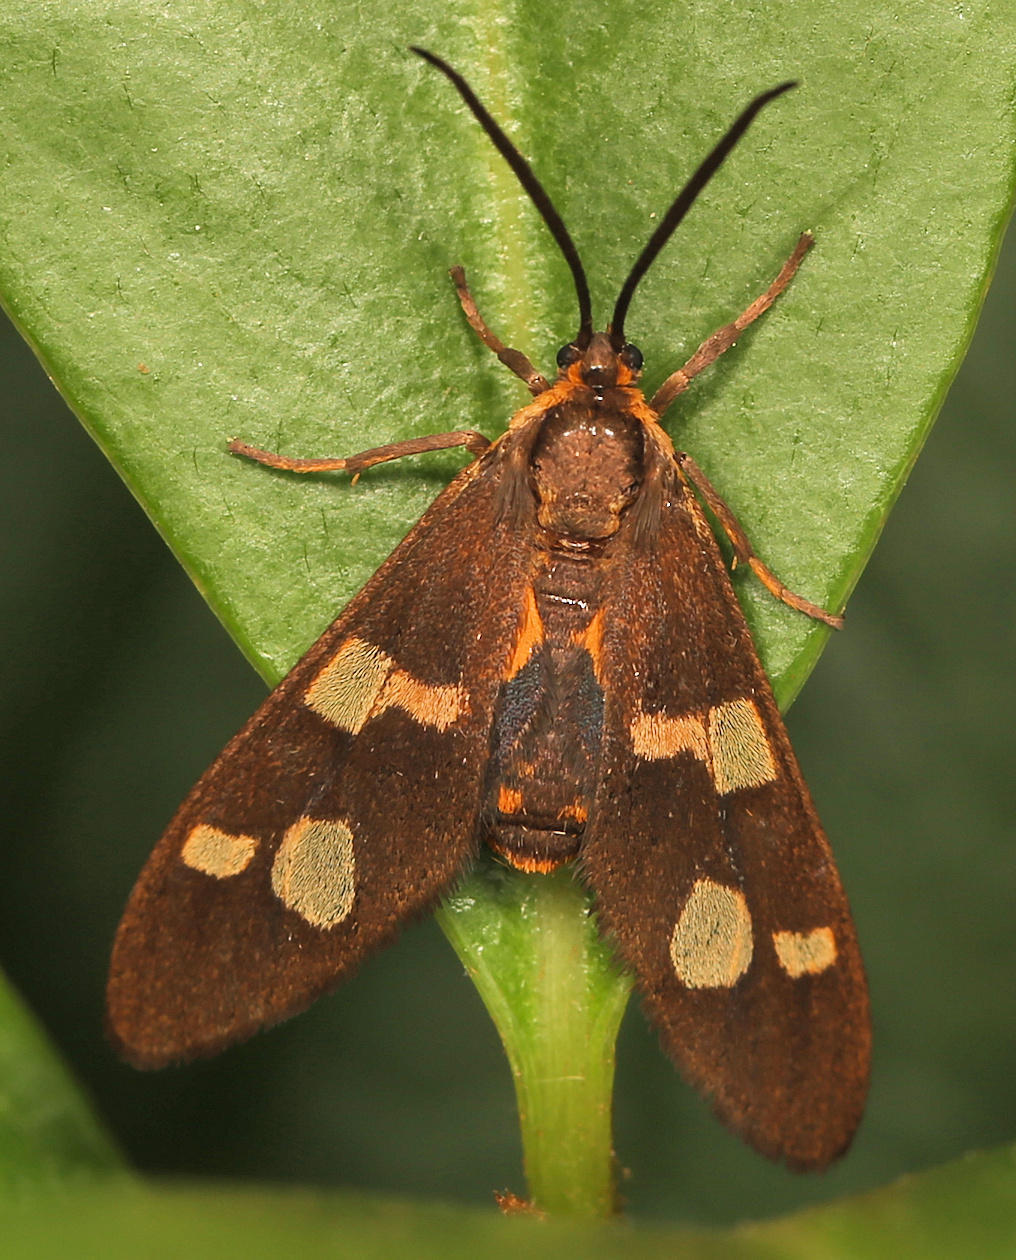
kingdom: Animalia
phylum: Arthropoda
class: Insecta
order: Lepidoptera
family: Erebidae
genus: Pseudonaclia
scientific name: Pseudonaclia puella
